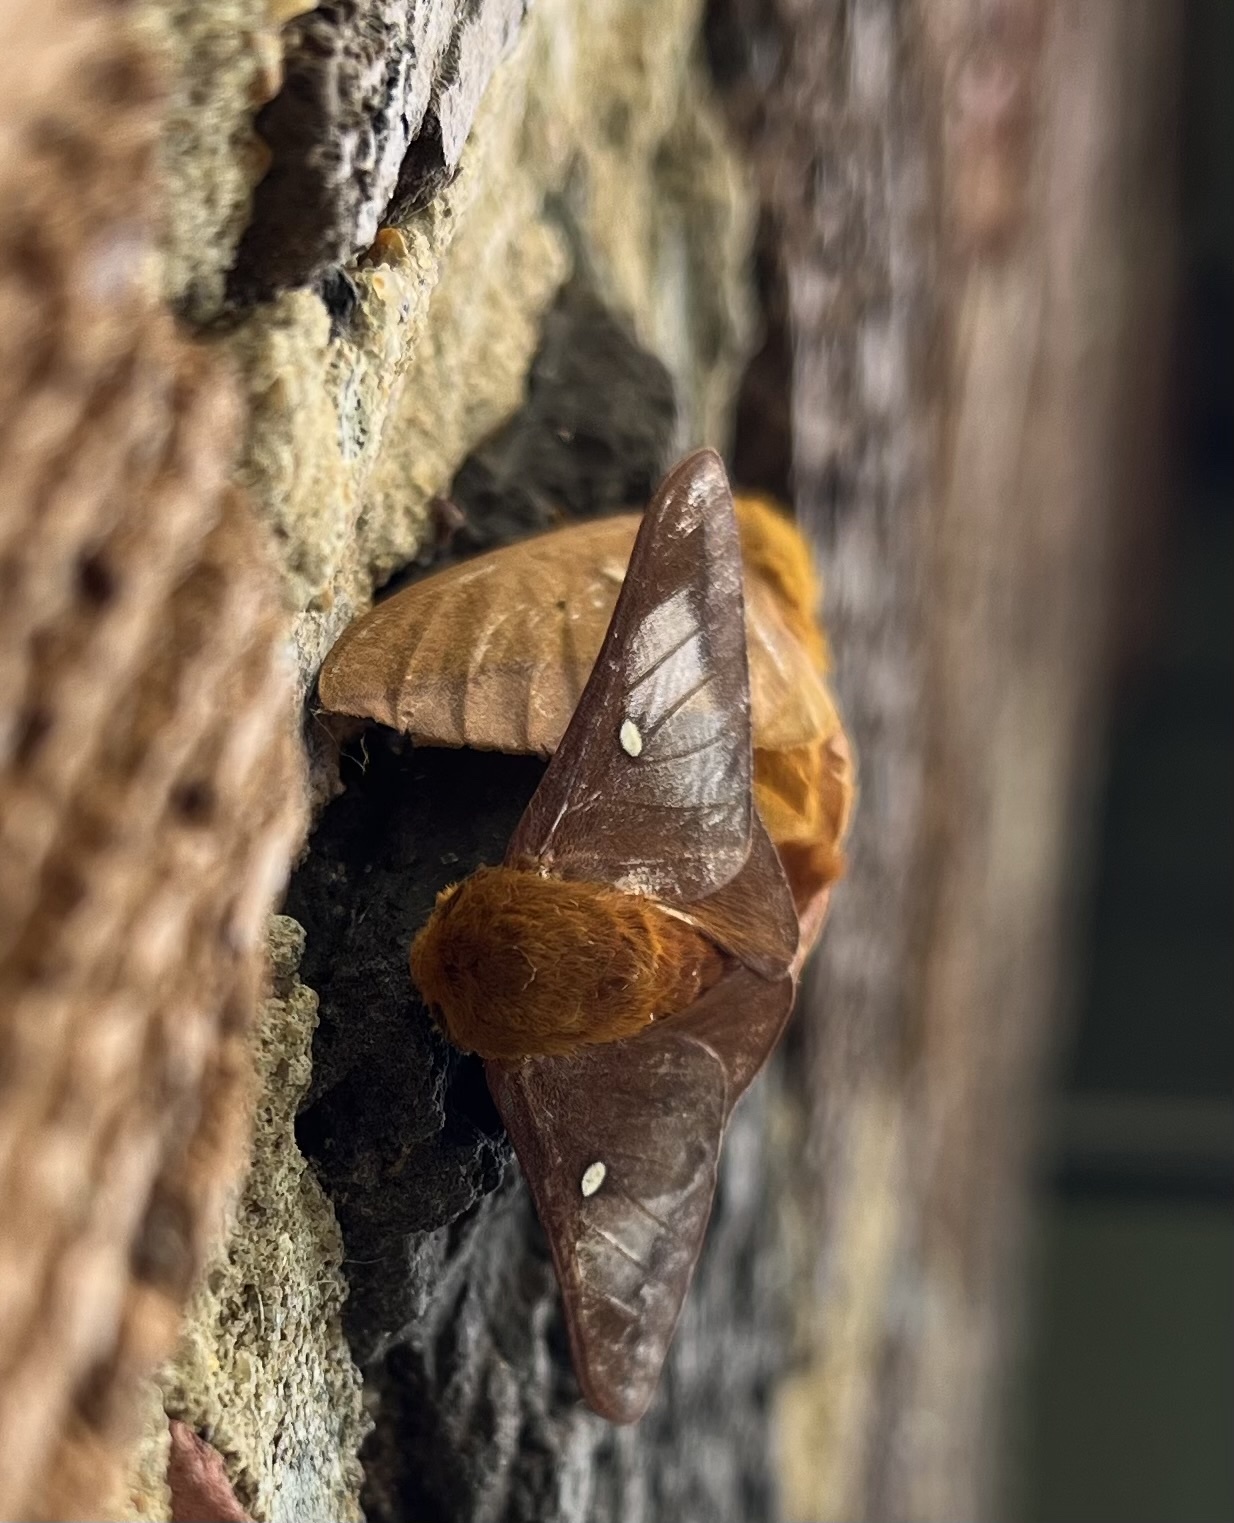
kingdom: Animalia
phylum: Arthropoda
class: Insecta
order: Lepidoptera
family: Saturniidae
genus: Anisota
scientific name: Anisota virginiensis
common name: Pink striped oakworm moth
